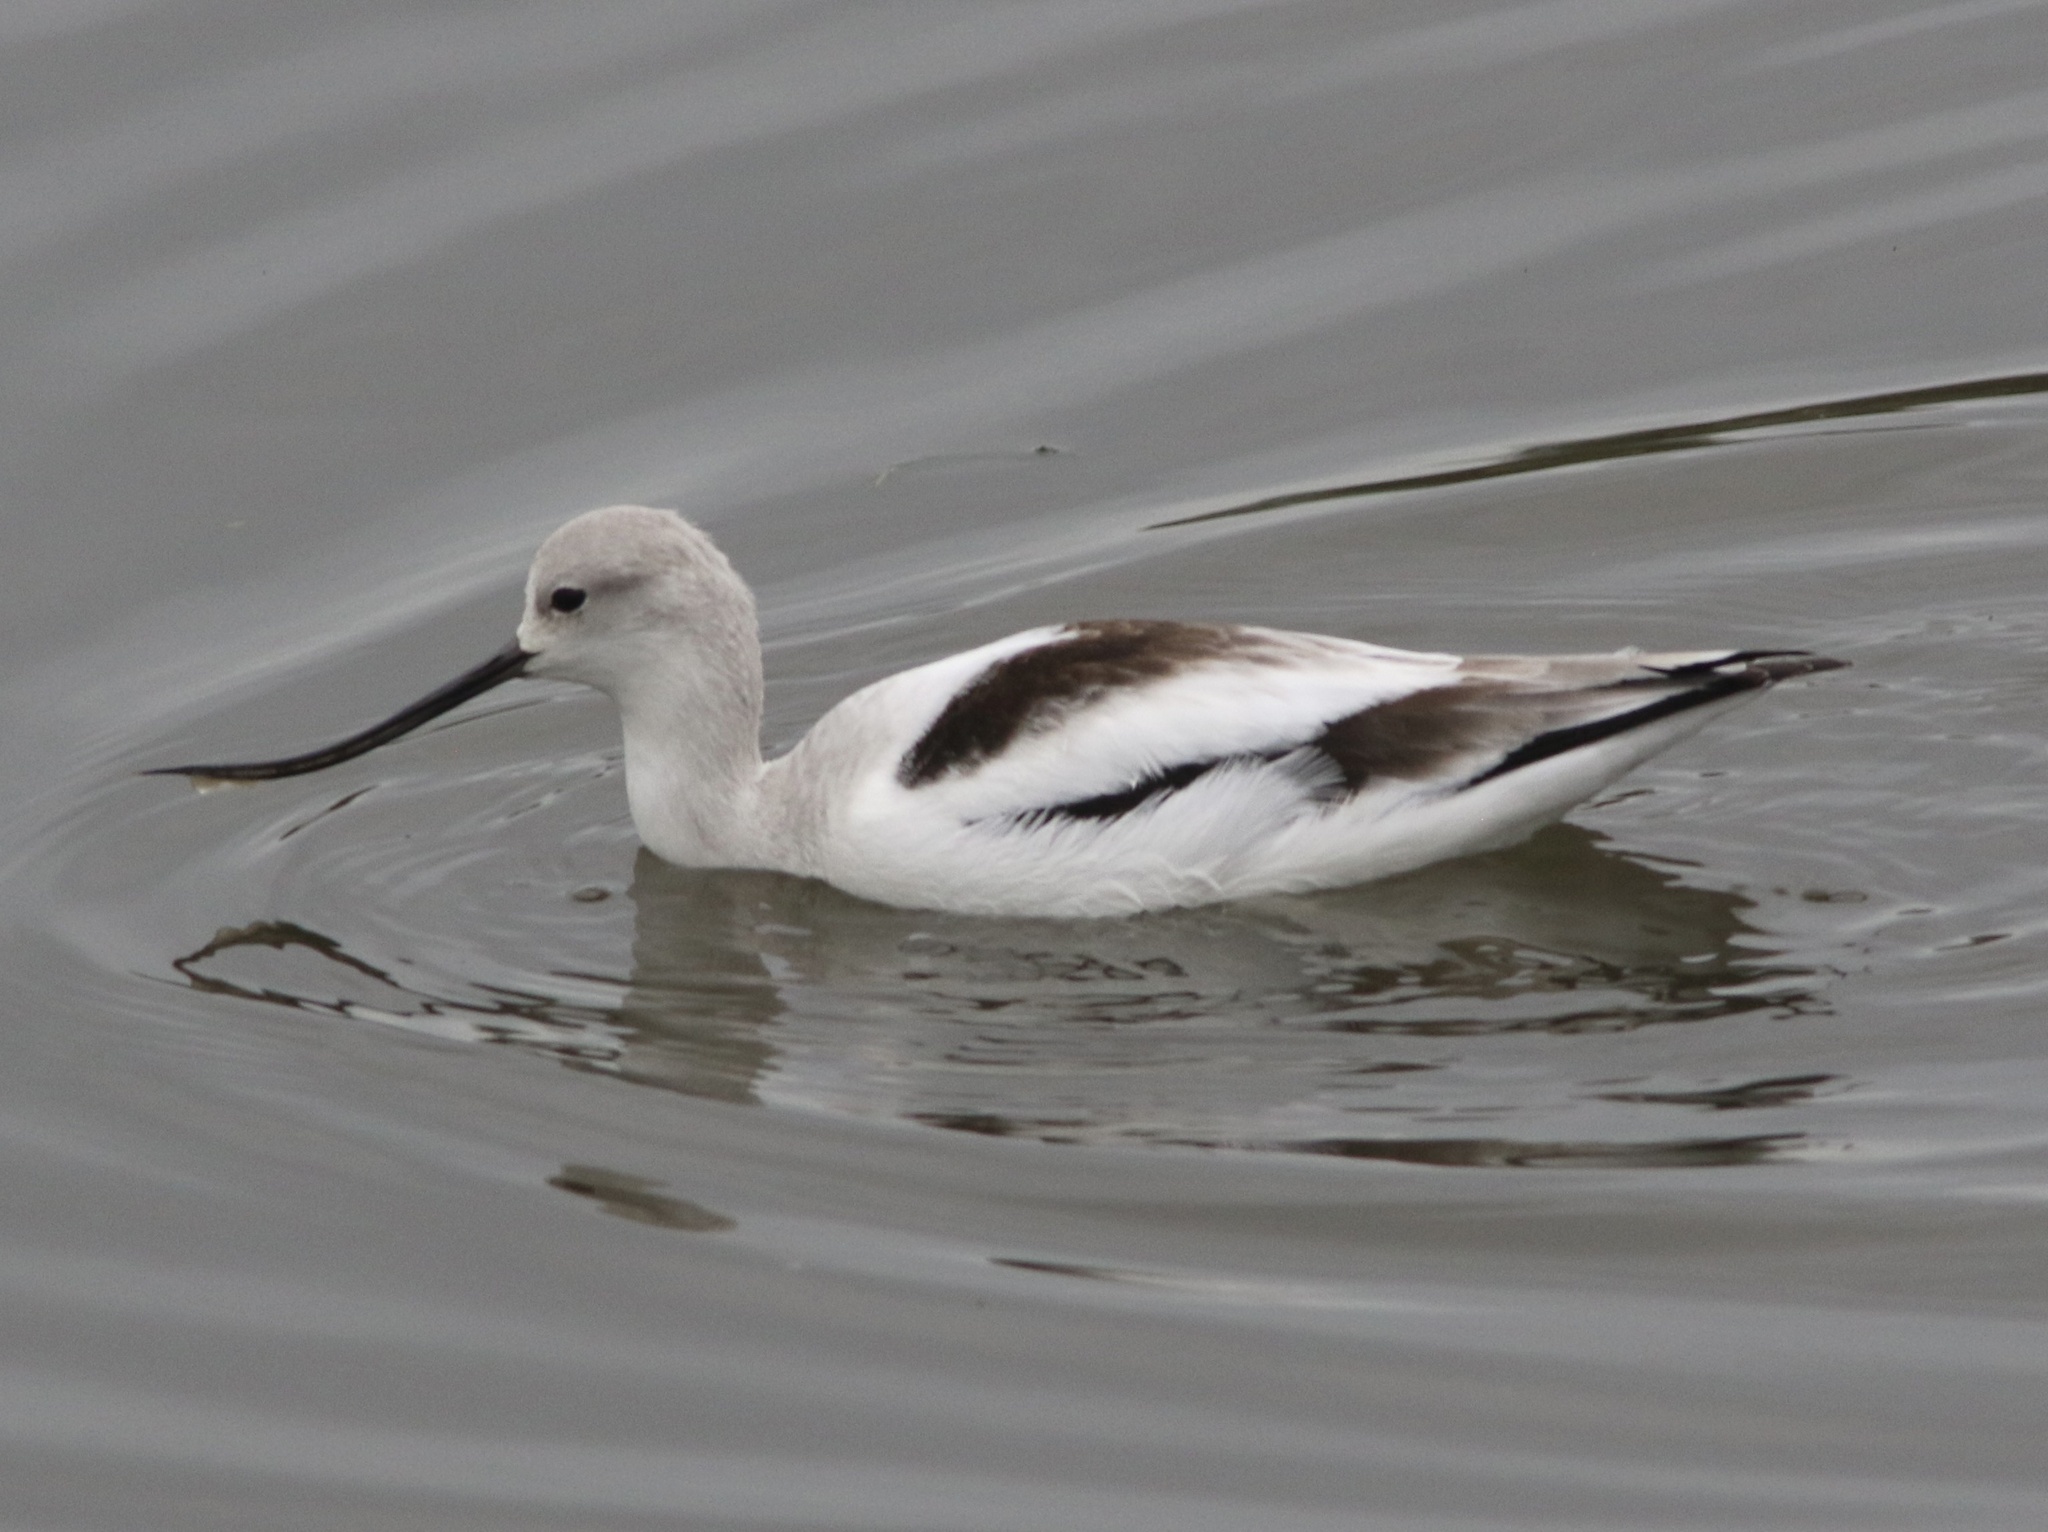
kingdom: Animalia
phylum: Chordata
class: Aves
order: Charadriiformes
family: Recurvirostridae
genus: Recurvirostra
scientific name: Recurvirostra americana
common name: American avocet
